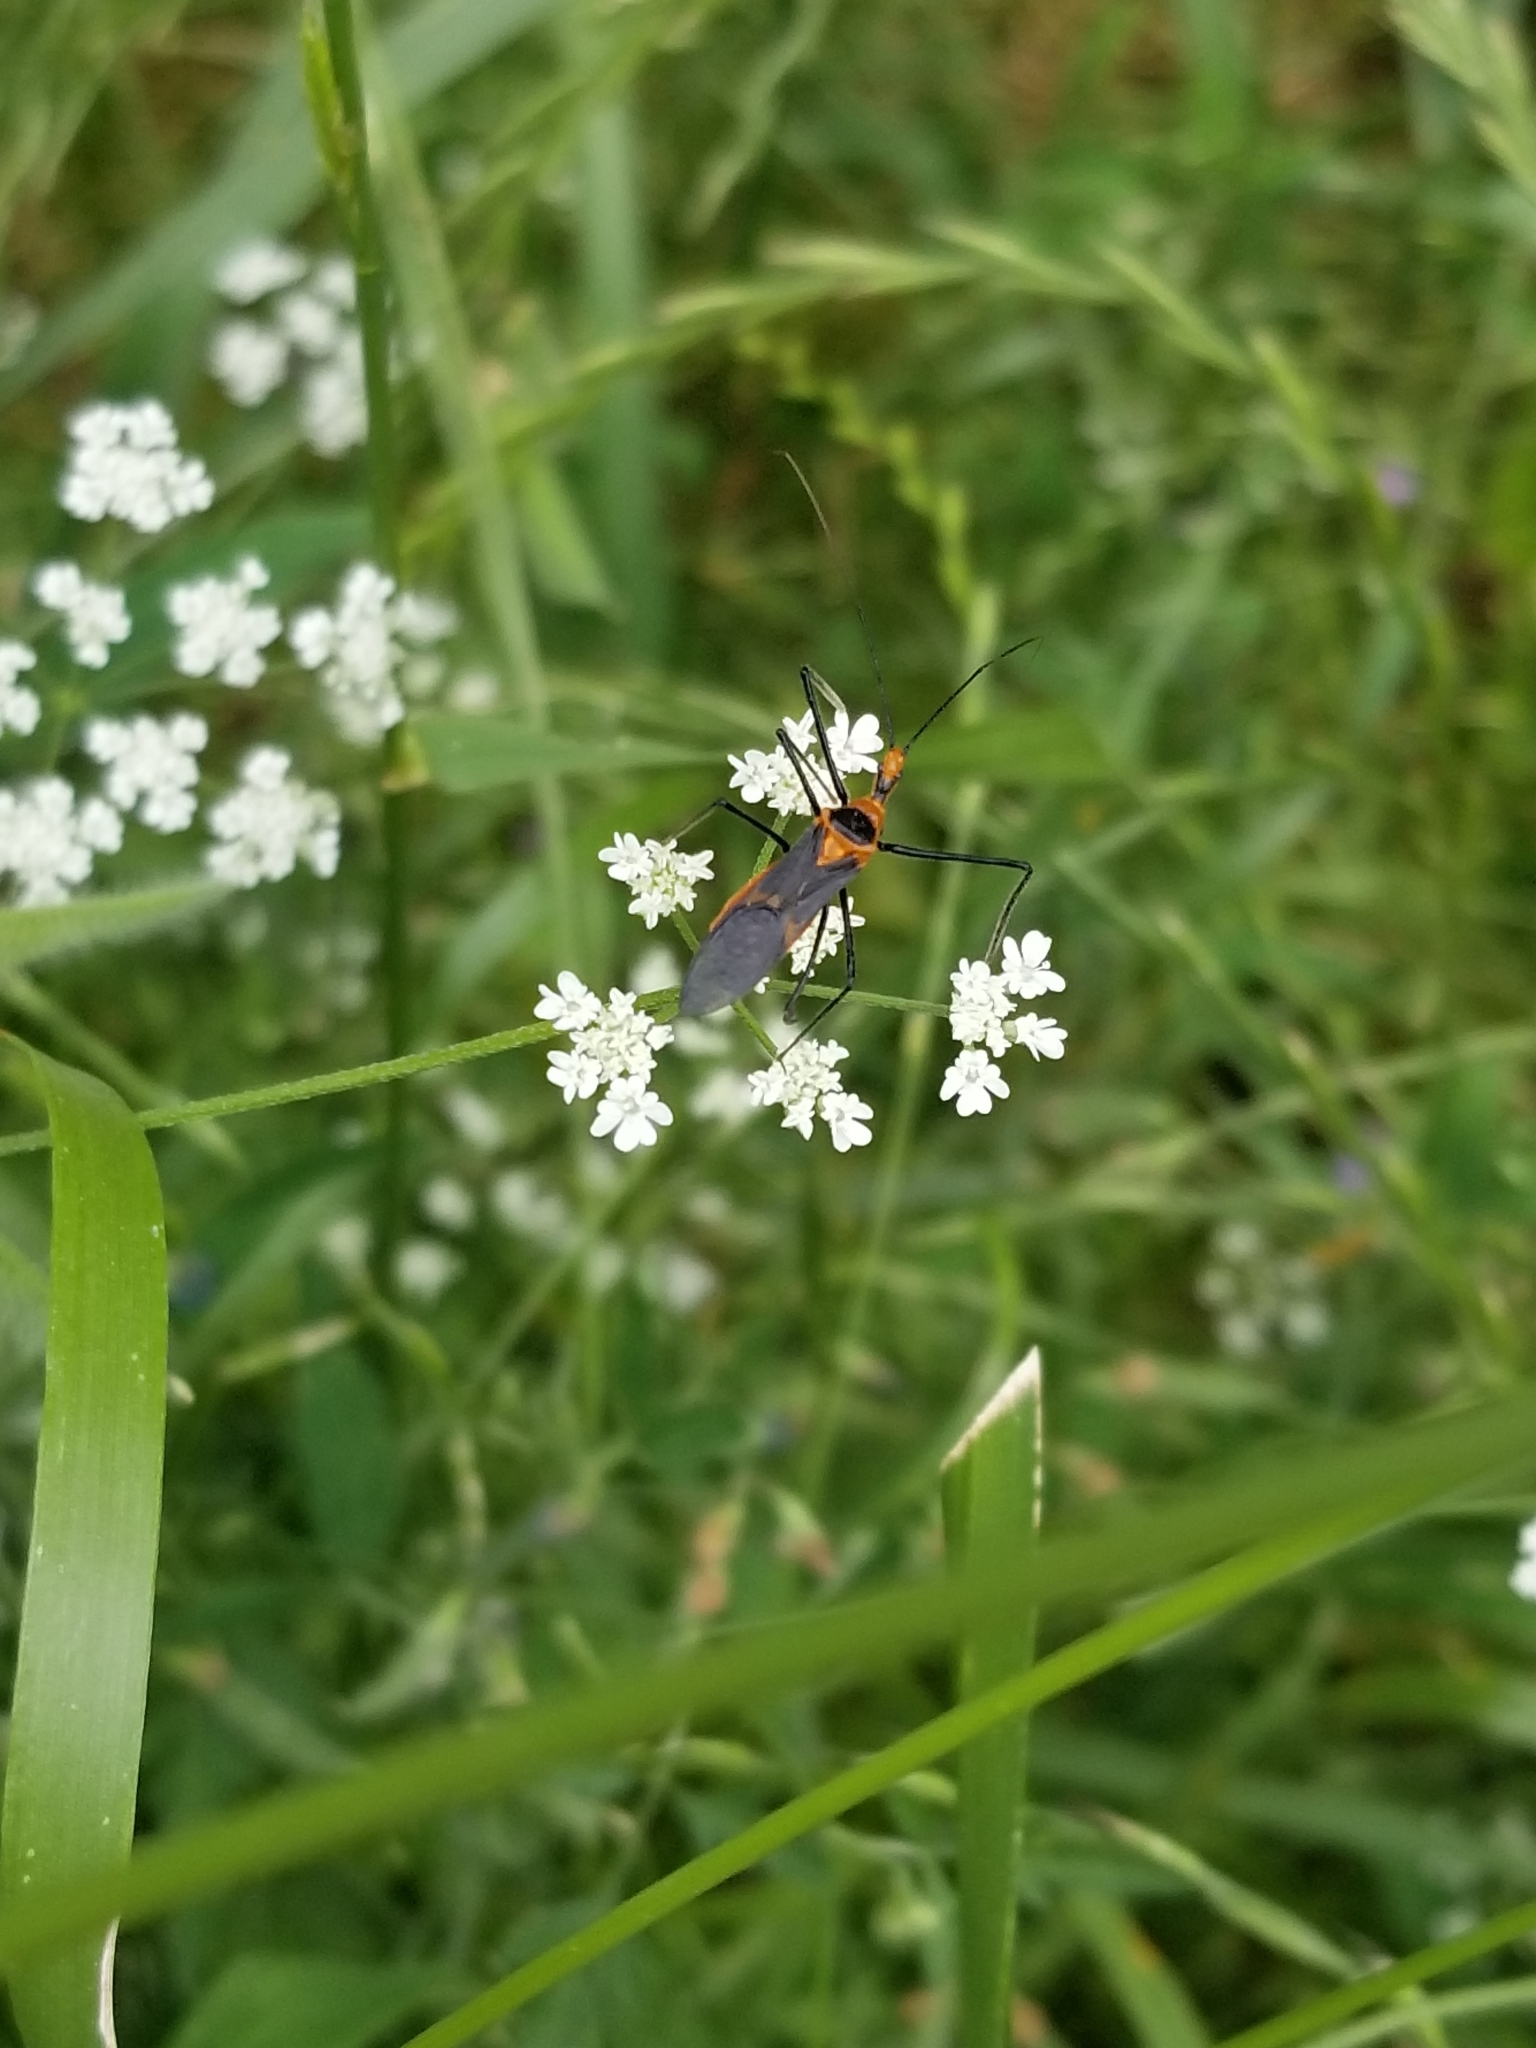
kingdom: Animalia
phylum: Arthropoda
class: Insecta
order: Hemiptera
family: Reduviidae
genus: Zelus
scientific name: Zelus longipes
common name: Milkweed assassin bug
